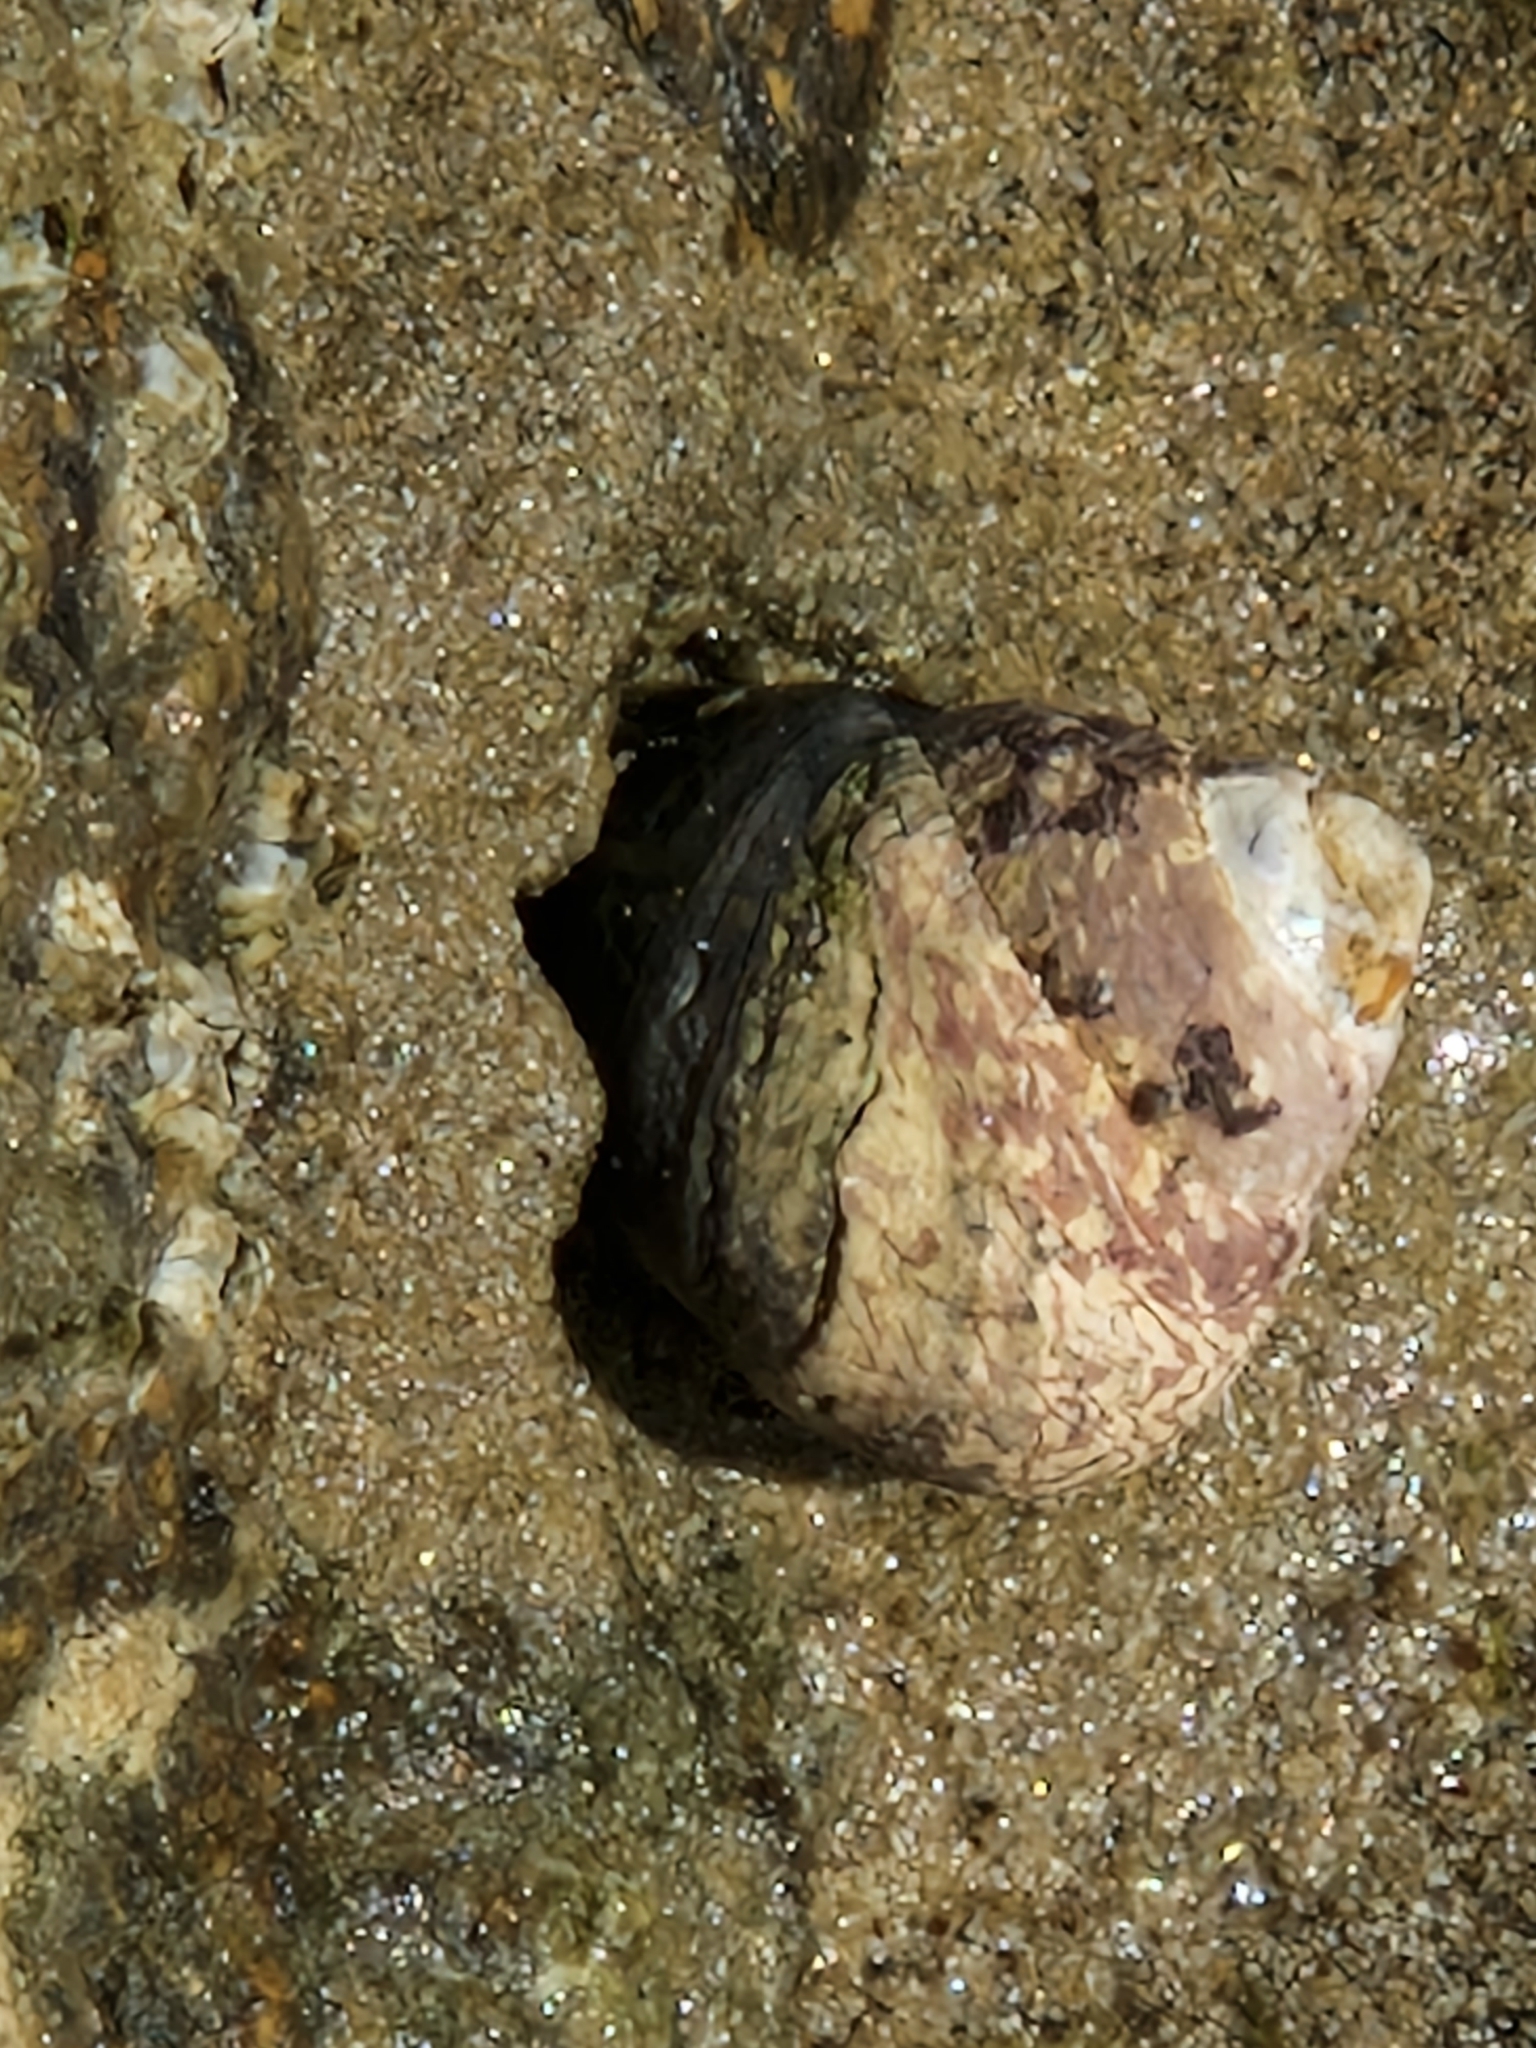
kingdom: Animalia
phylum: Mollusca
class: Gastropoda
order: Trochida
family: Trochidae
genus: Phorcus
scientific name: Phorcus lineatus
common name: Toothed top shell
